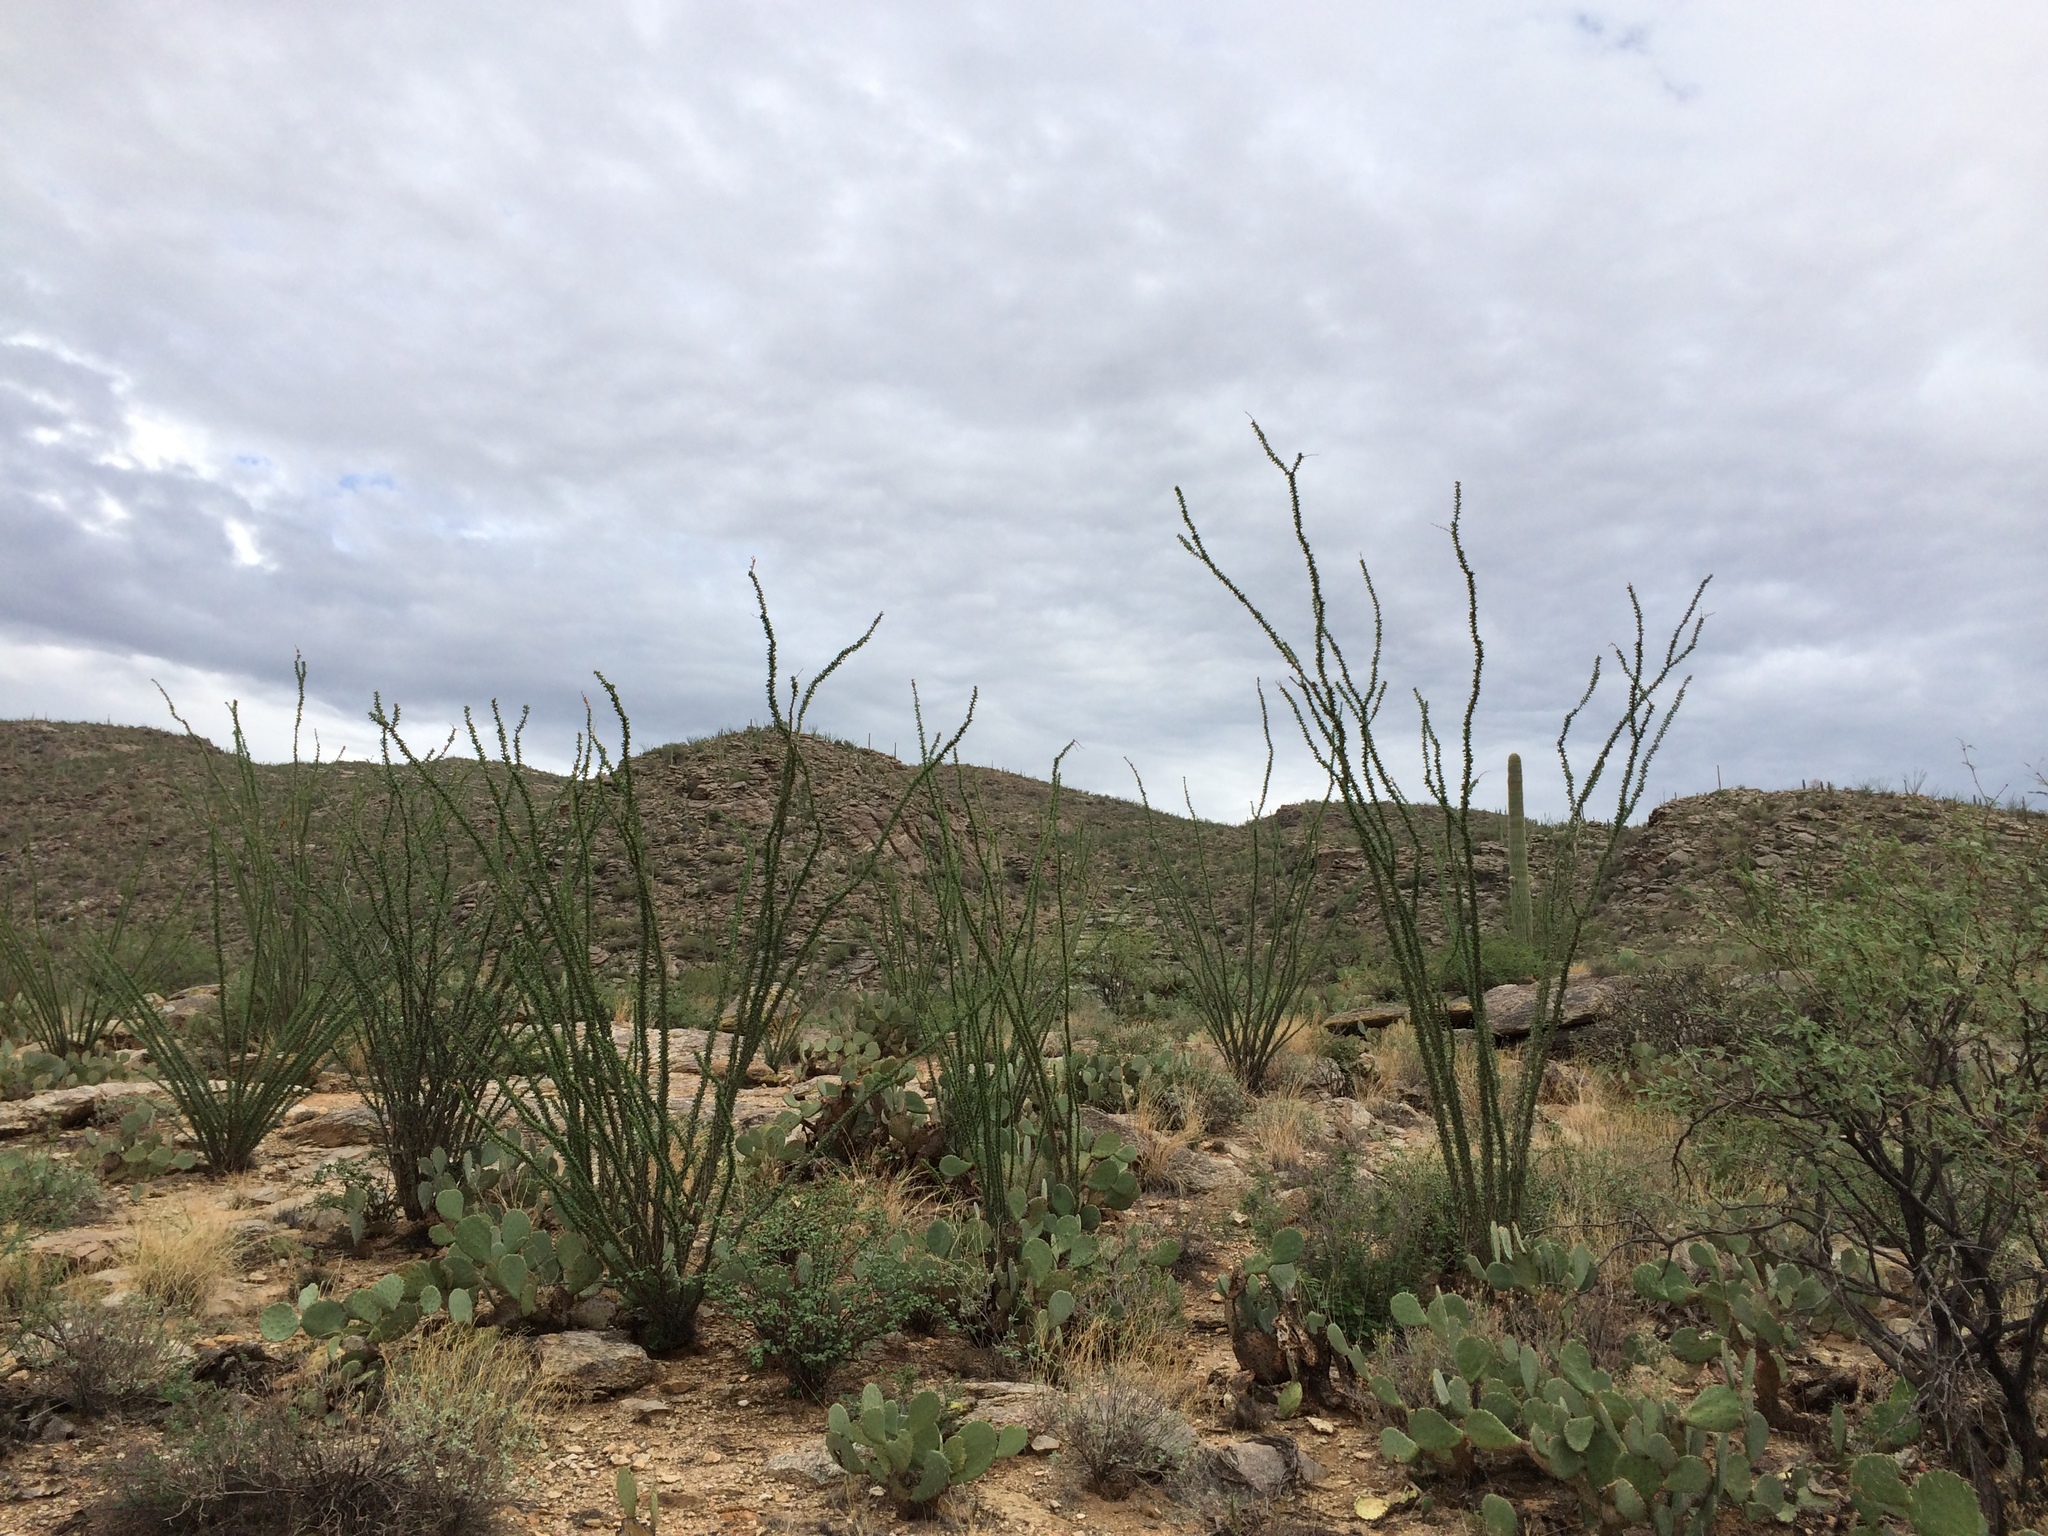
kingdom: Plantae
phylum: Tracheophyta
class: Magnoliopsida
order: Ericales
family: Fouquieriaceae
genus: Fouquieria
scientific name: Fouquieria splendens
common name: Vine-cactus
